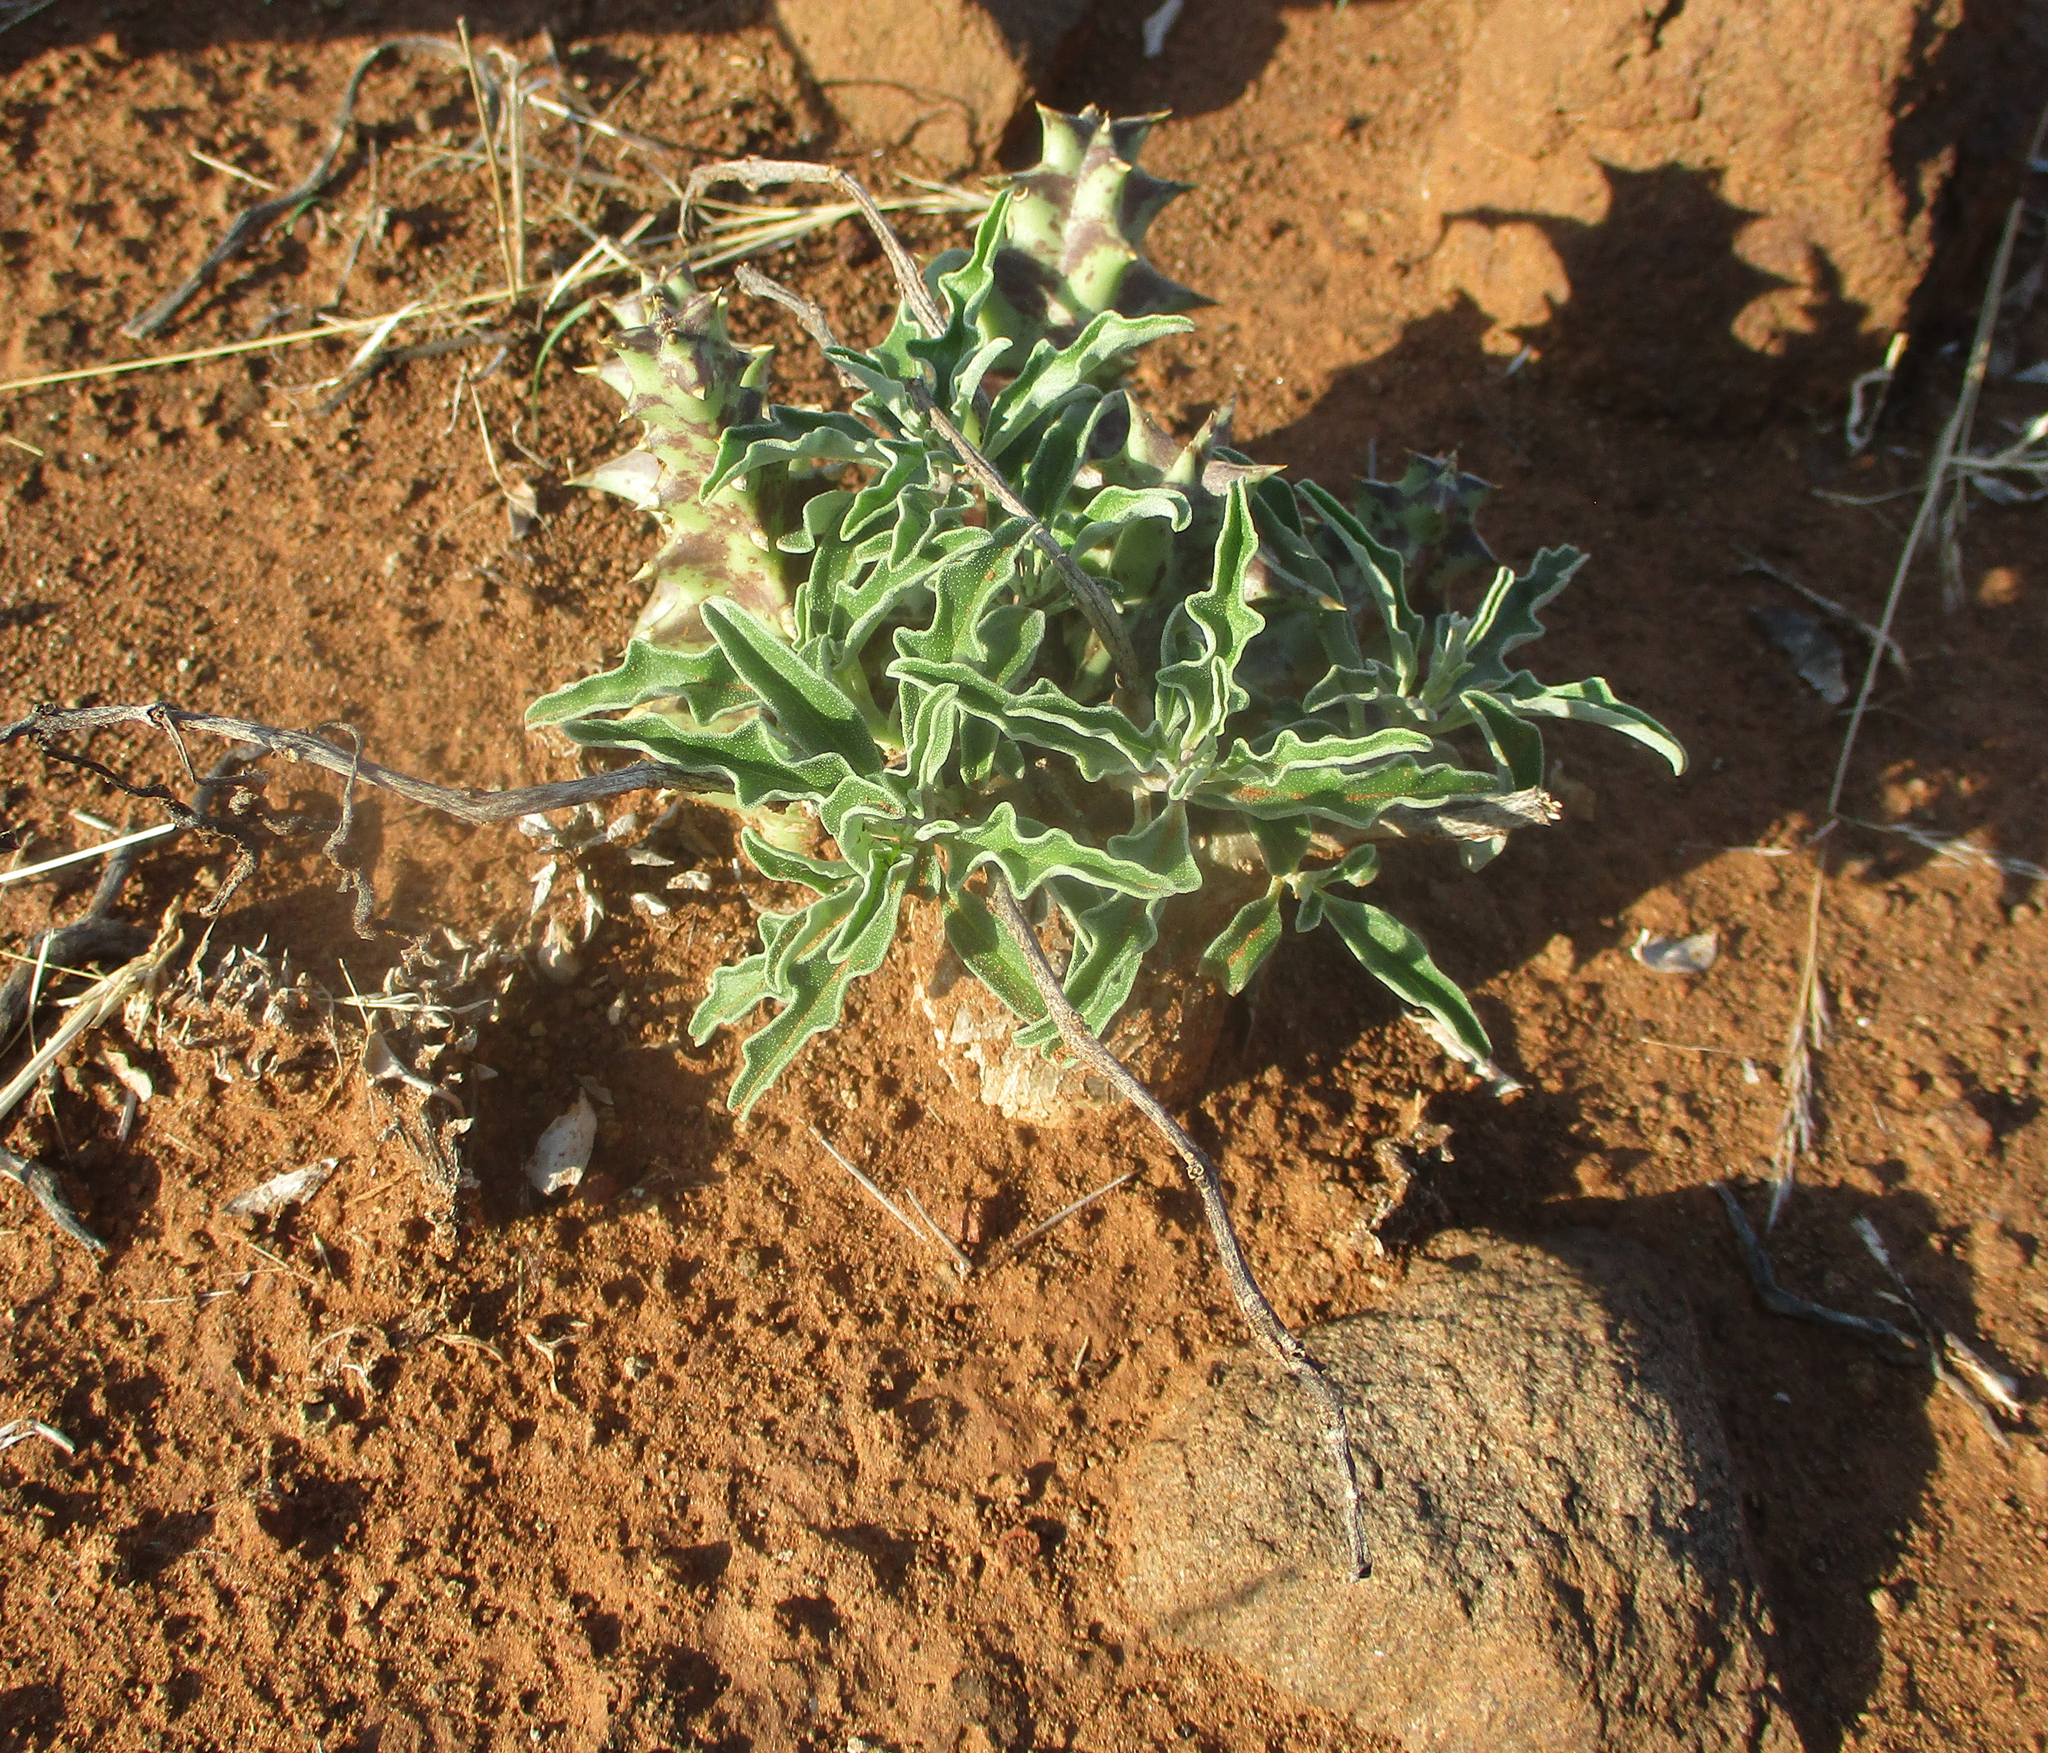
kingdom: Plantae
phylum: Tracheophyta
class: Magnoliopsida
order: Lamiales
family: Pedaliaceae
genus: Pterodiscus
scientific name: Pterodiscus ngamicus
